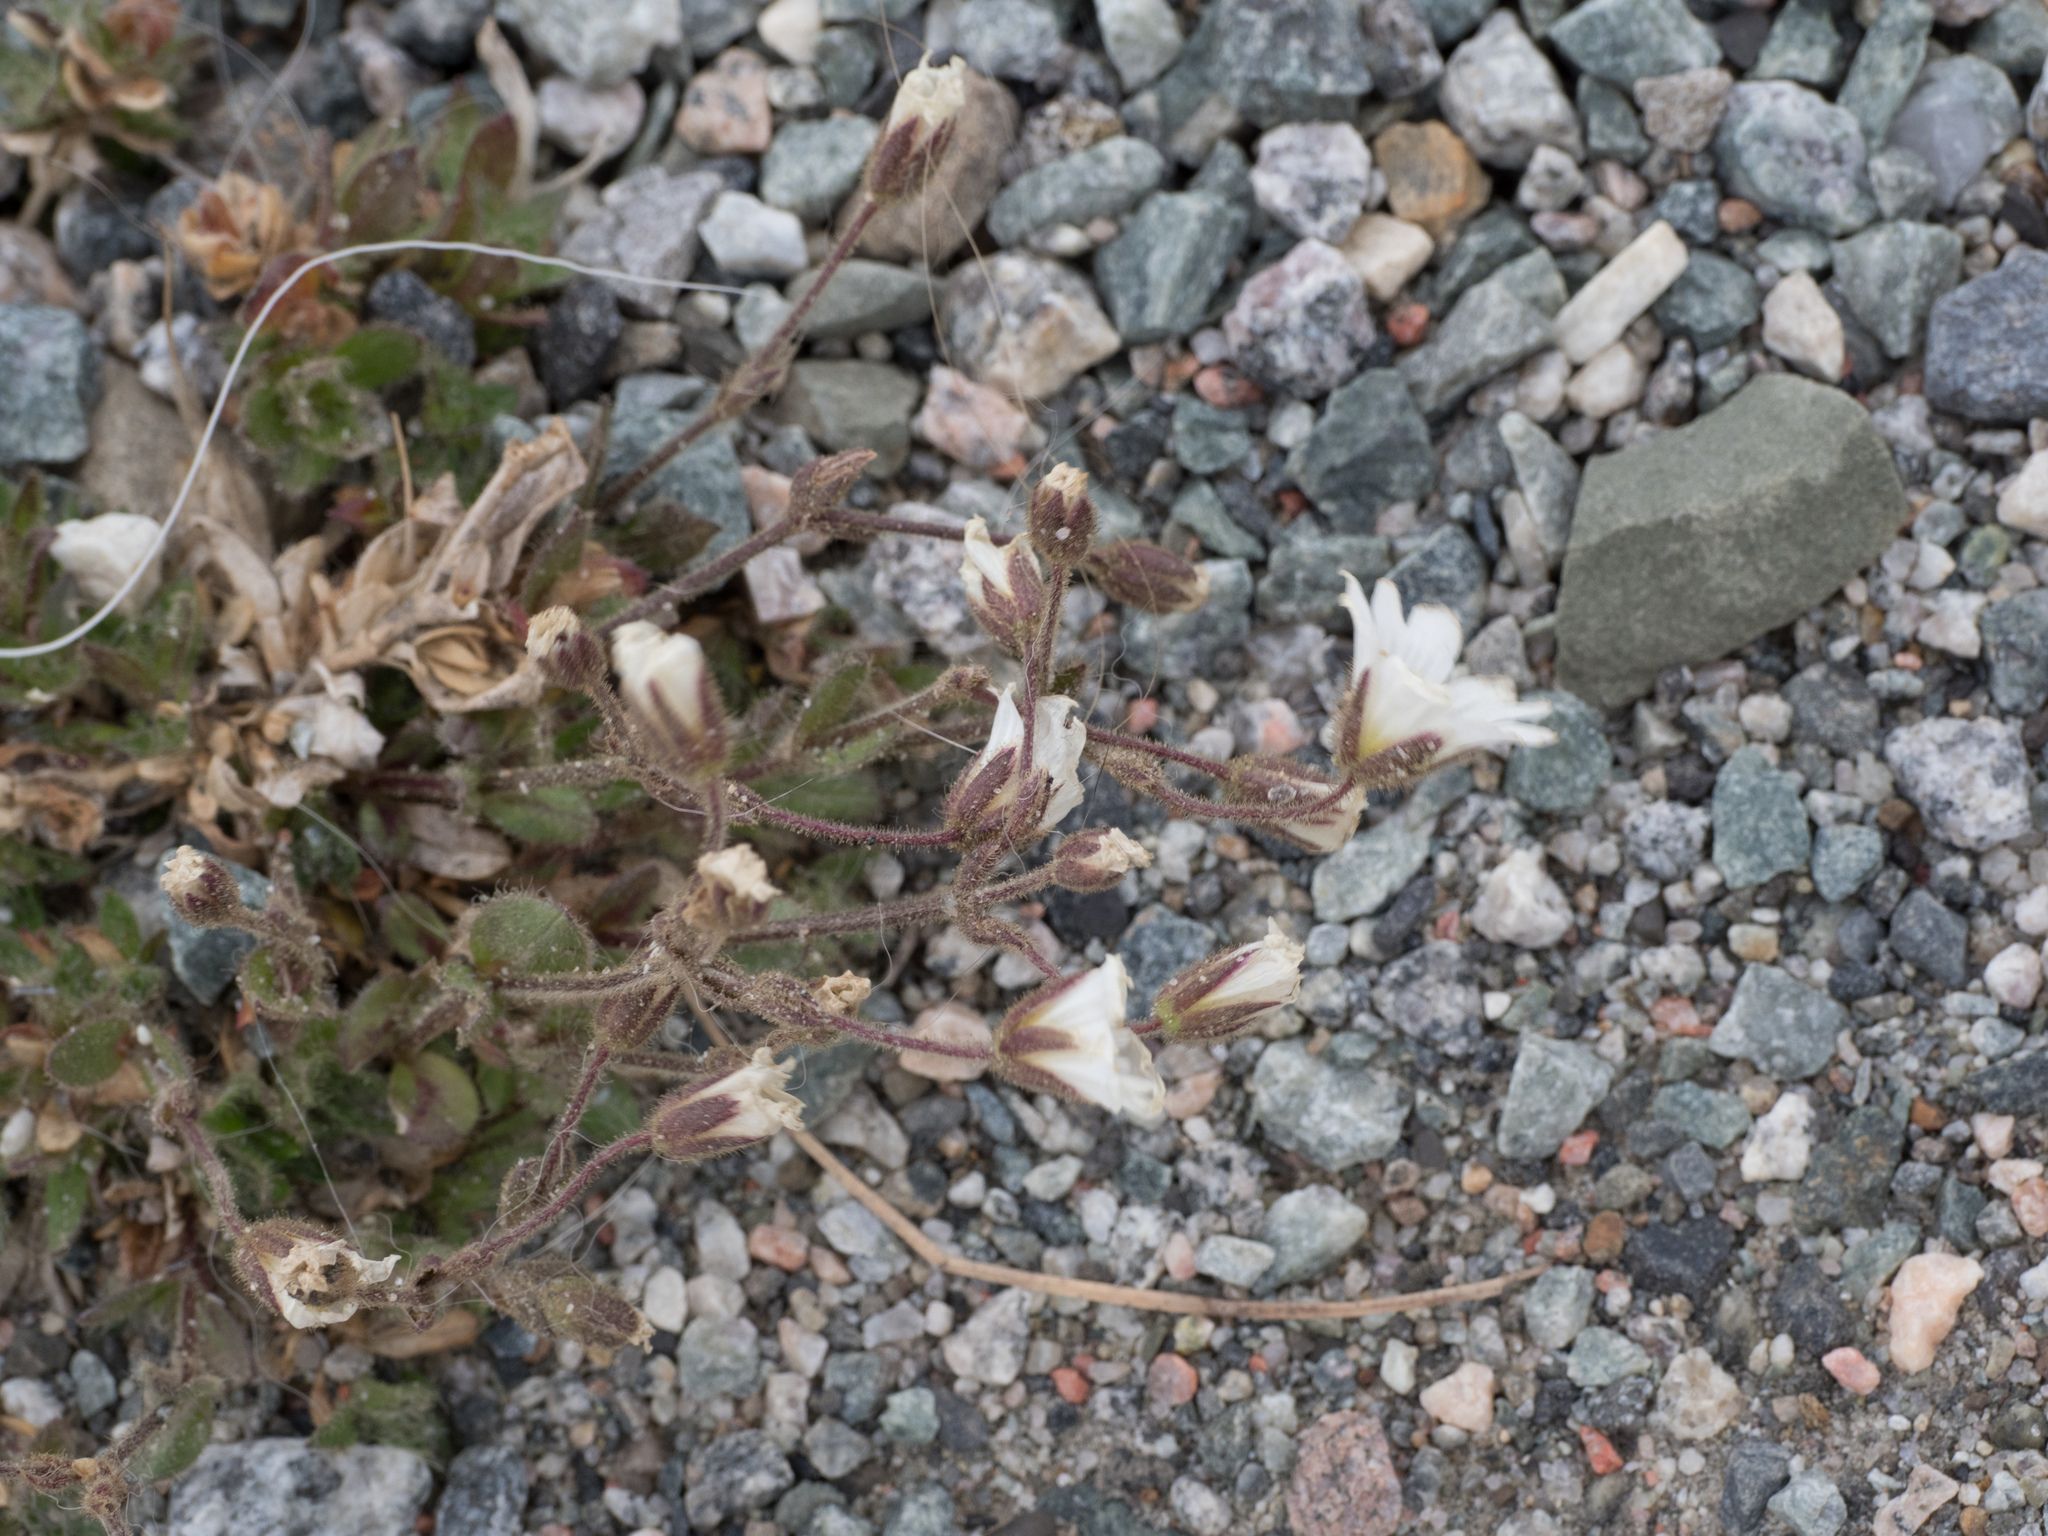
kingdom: Plantae
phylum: Tracheophyta
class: Magnoliopsida
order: Caryophyllales
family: Caryophyllaceae
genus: Cerastium
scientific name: Cerastium arcticum
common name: Arctic mouse-ear
